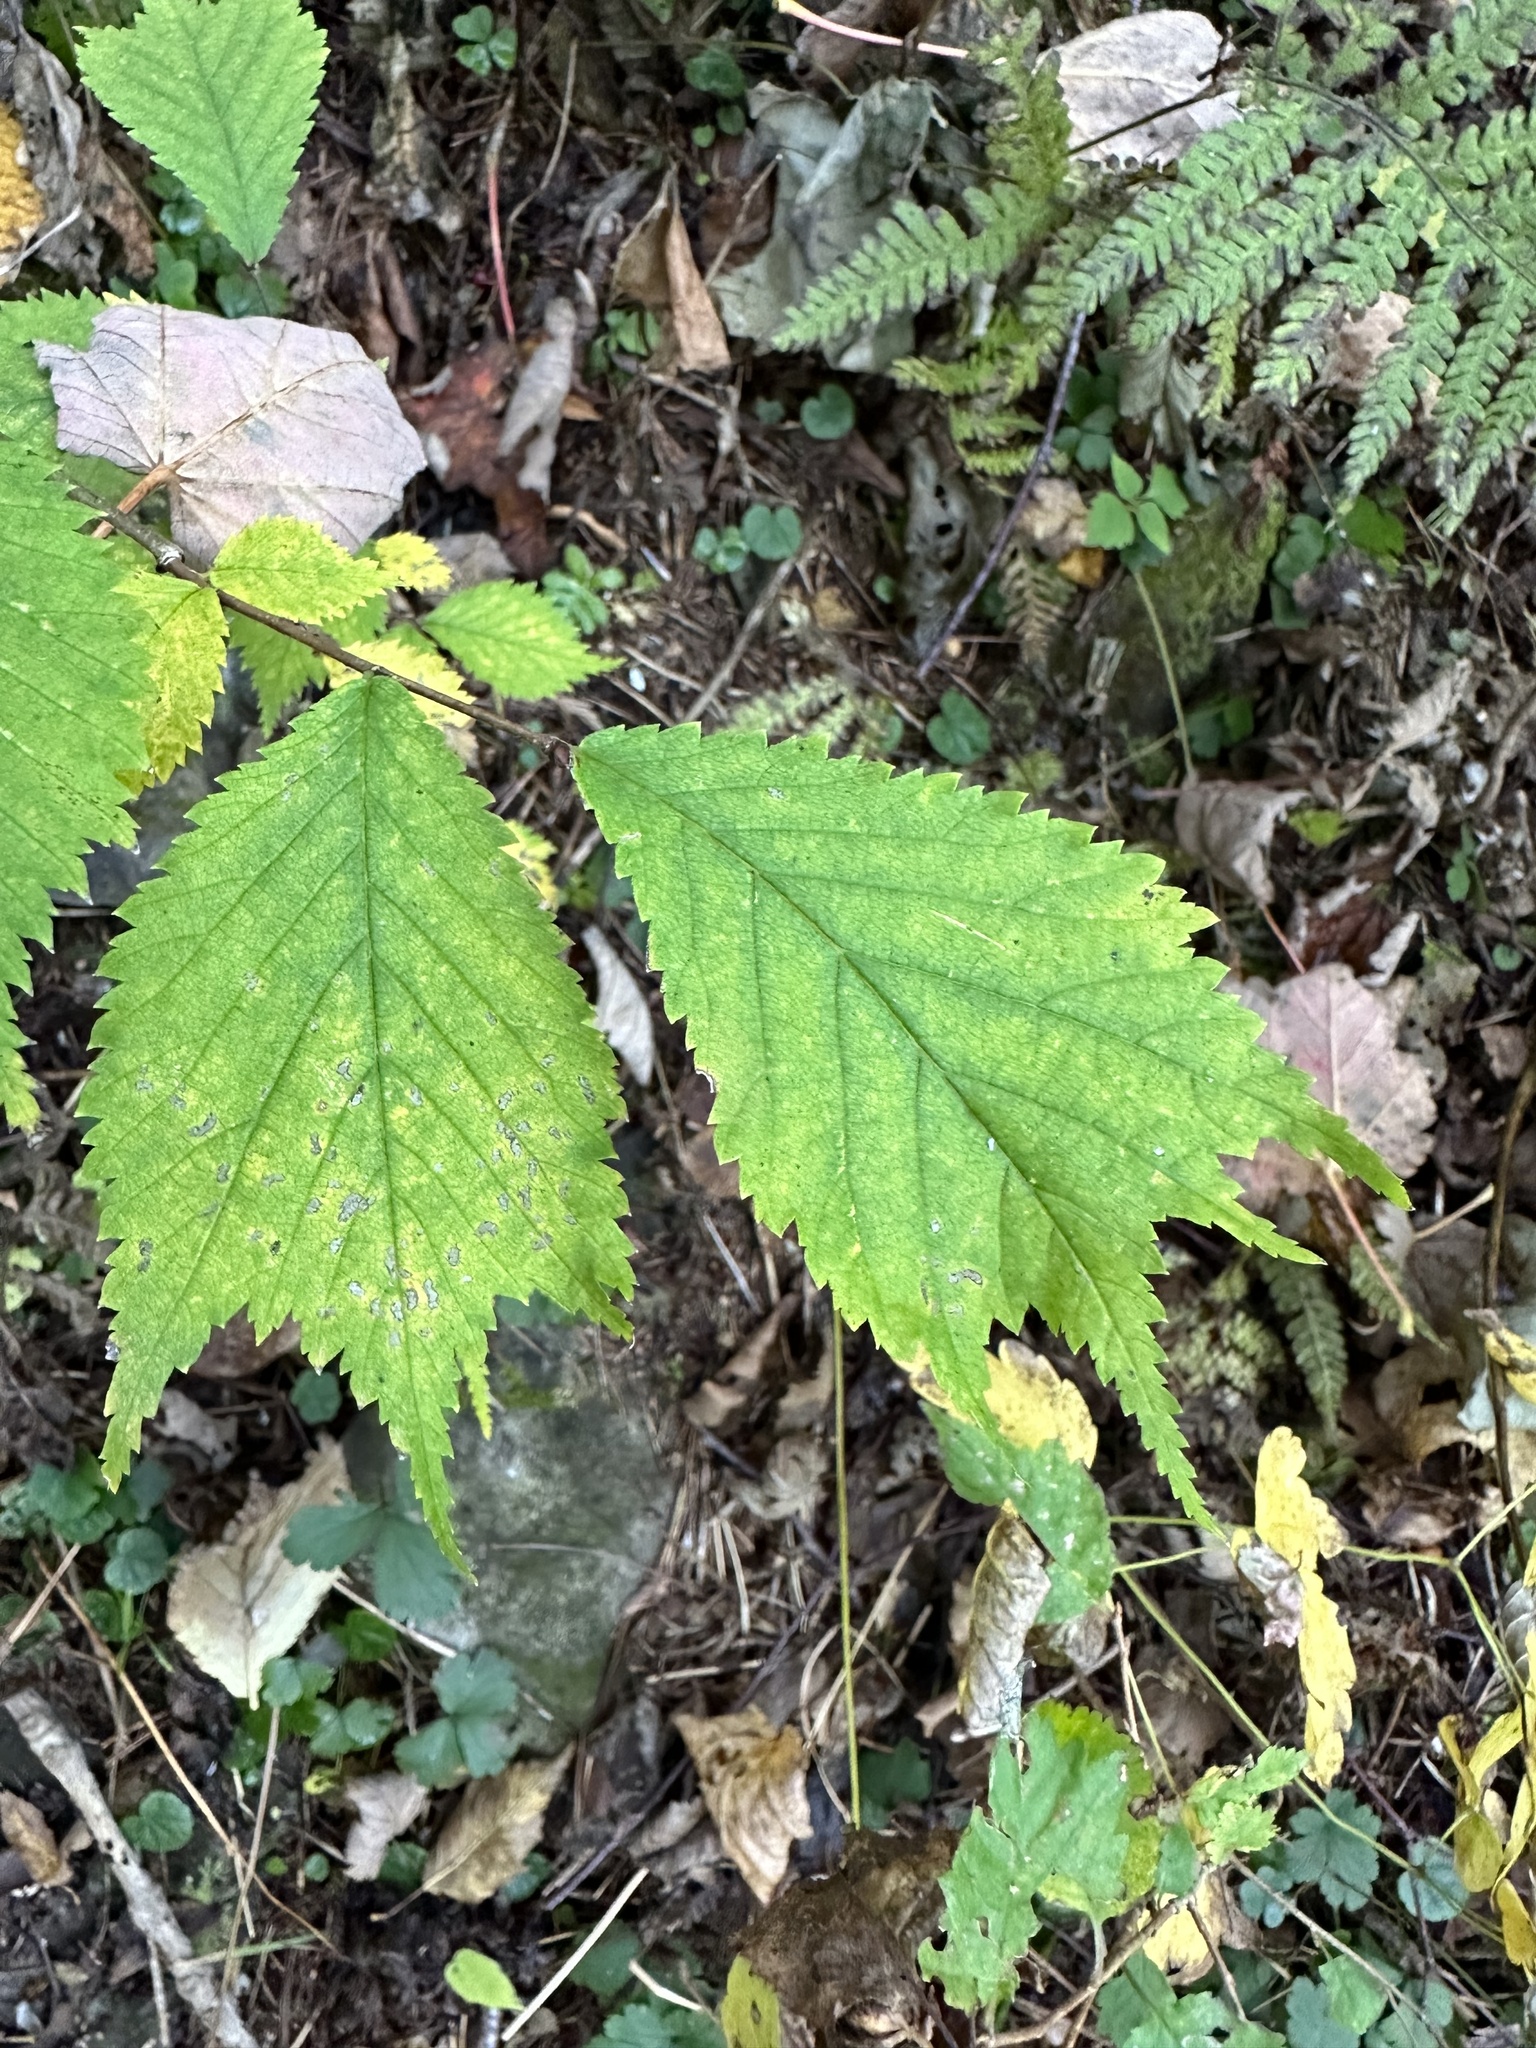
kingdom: Plantae
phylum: Tracheophyta
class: Magnoliopsida
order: Rosales
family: Ulmaceae
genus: Ulmus
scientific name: Ulmus laciniata
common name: Japanese elm
